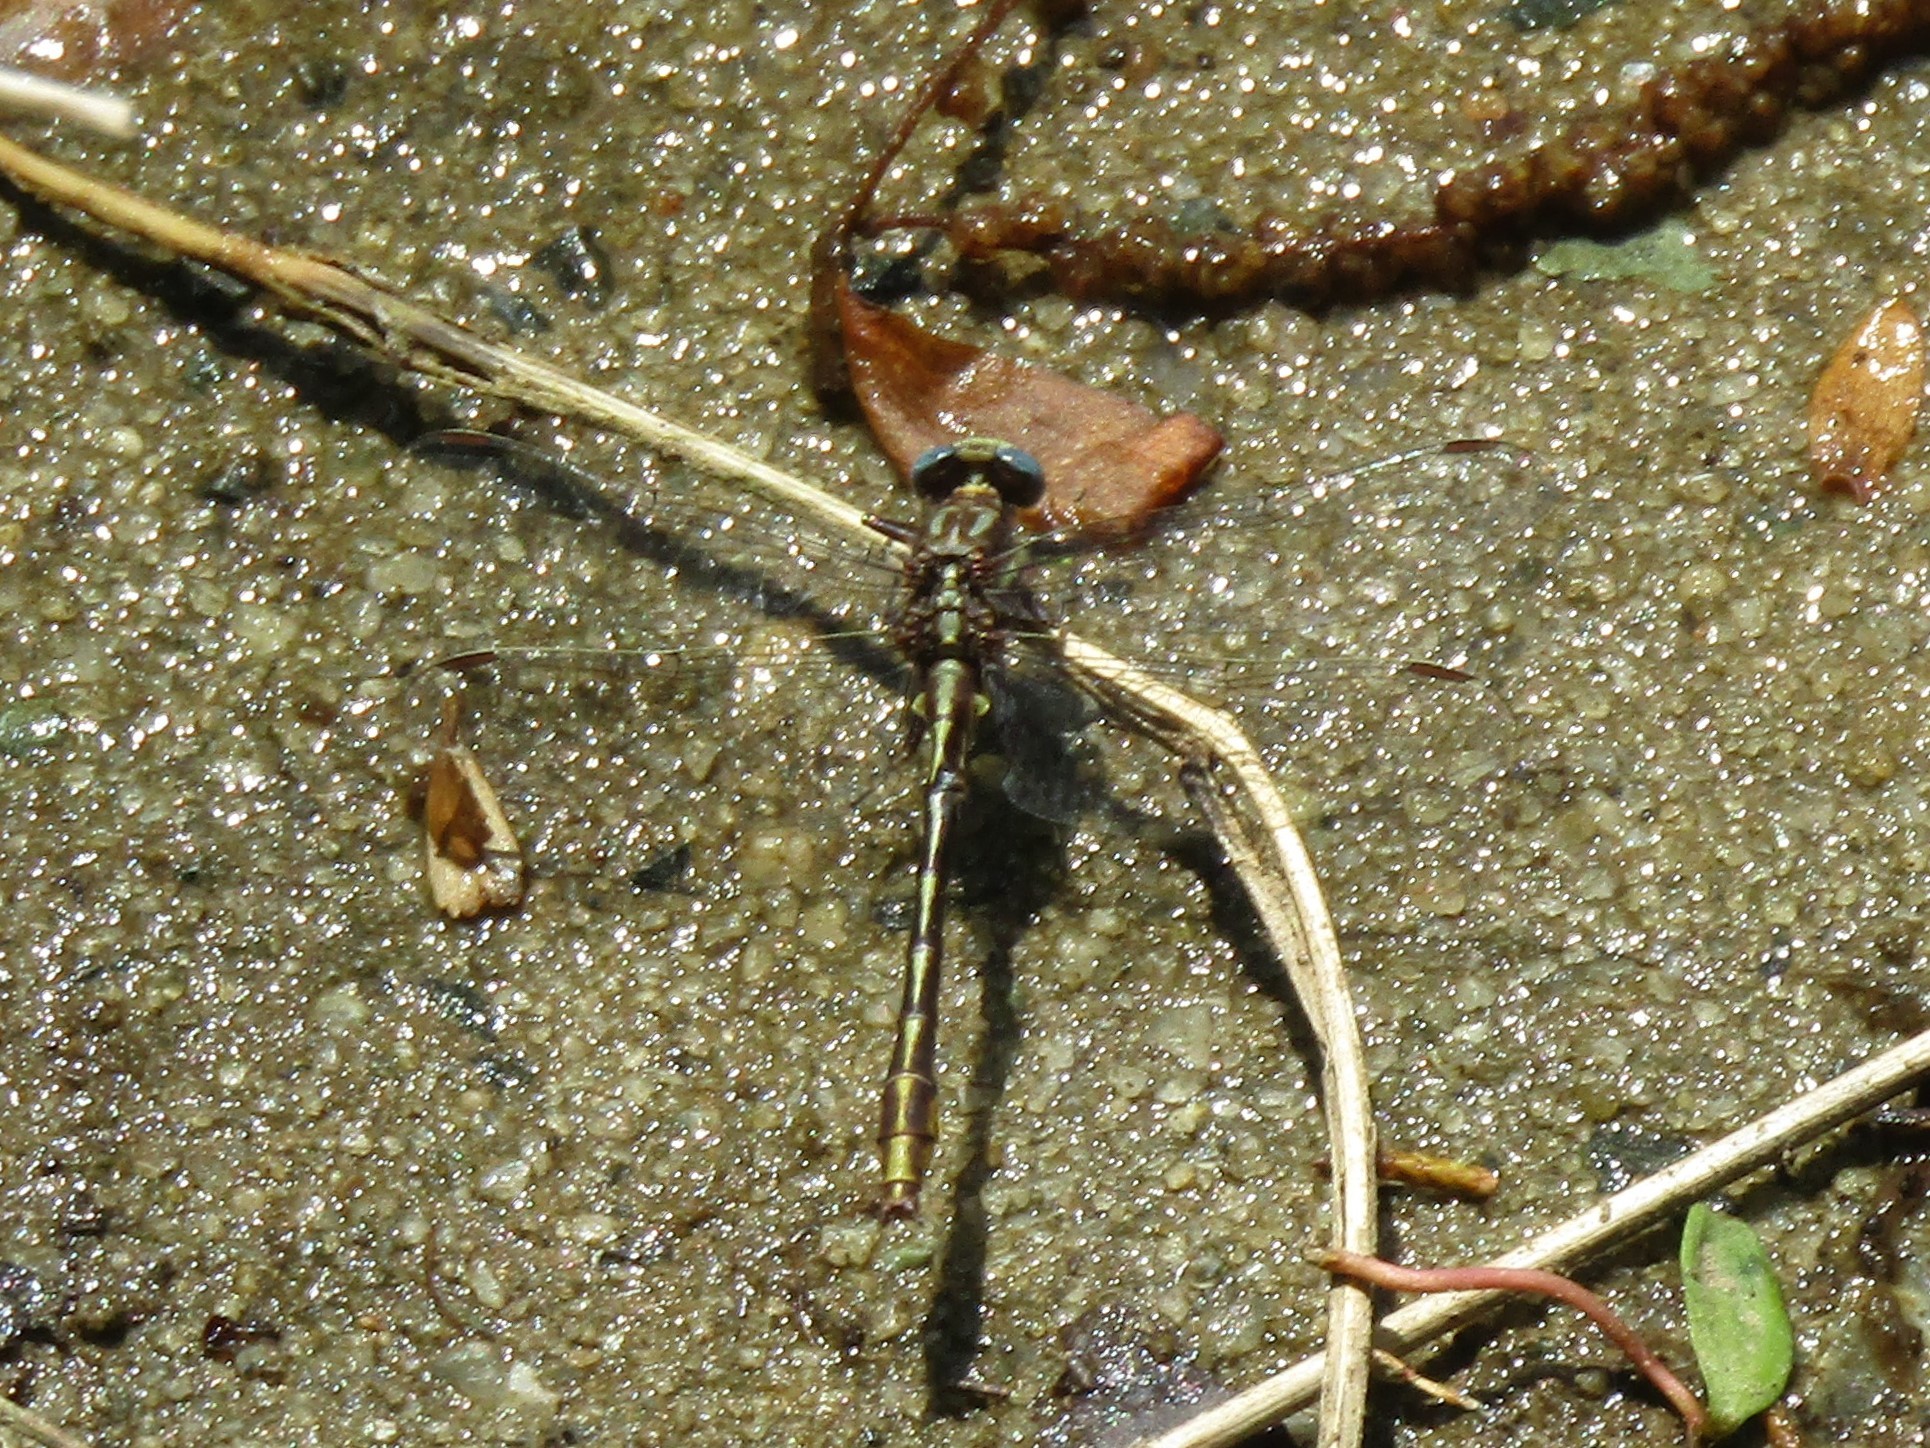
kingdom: Animalia
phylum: Arthropoda
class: Insecta
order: Odonata
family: Gomphidae
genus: Phanogomphus
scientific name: Phanogomphus exilis
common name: Lancet clubtail
